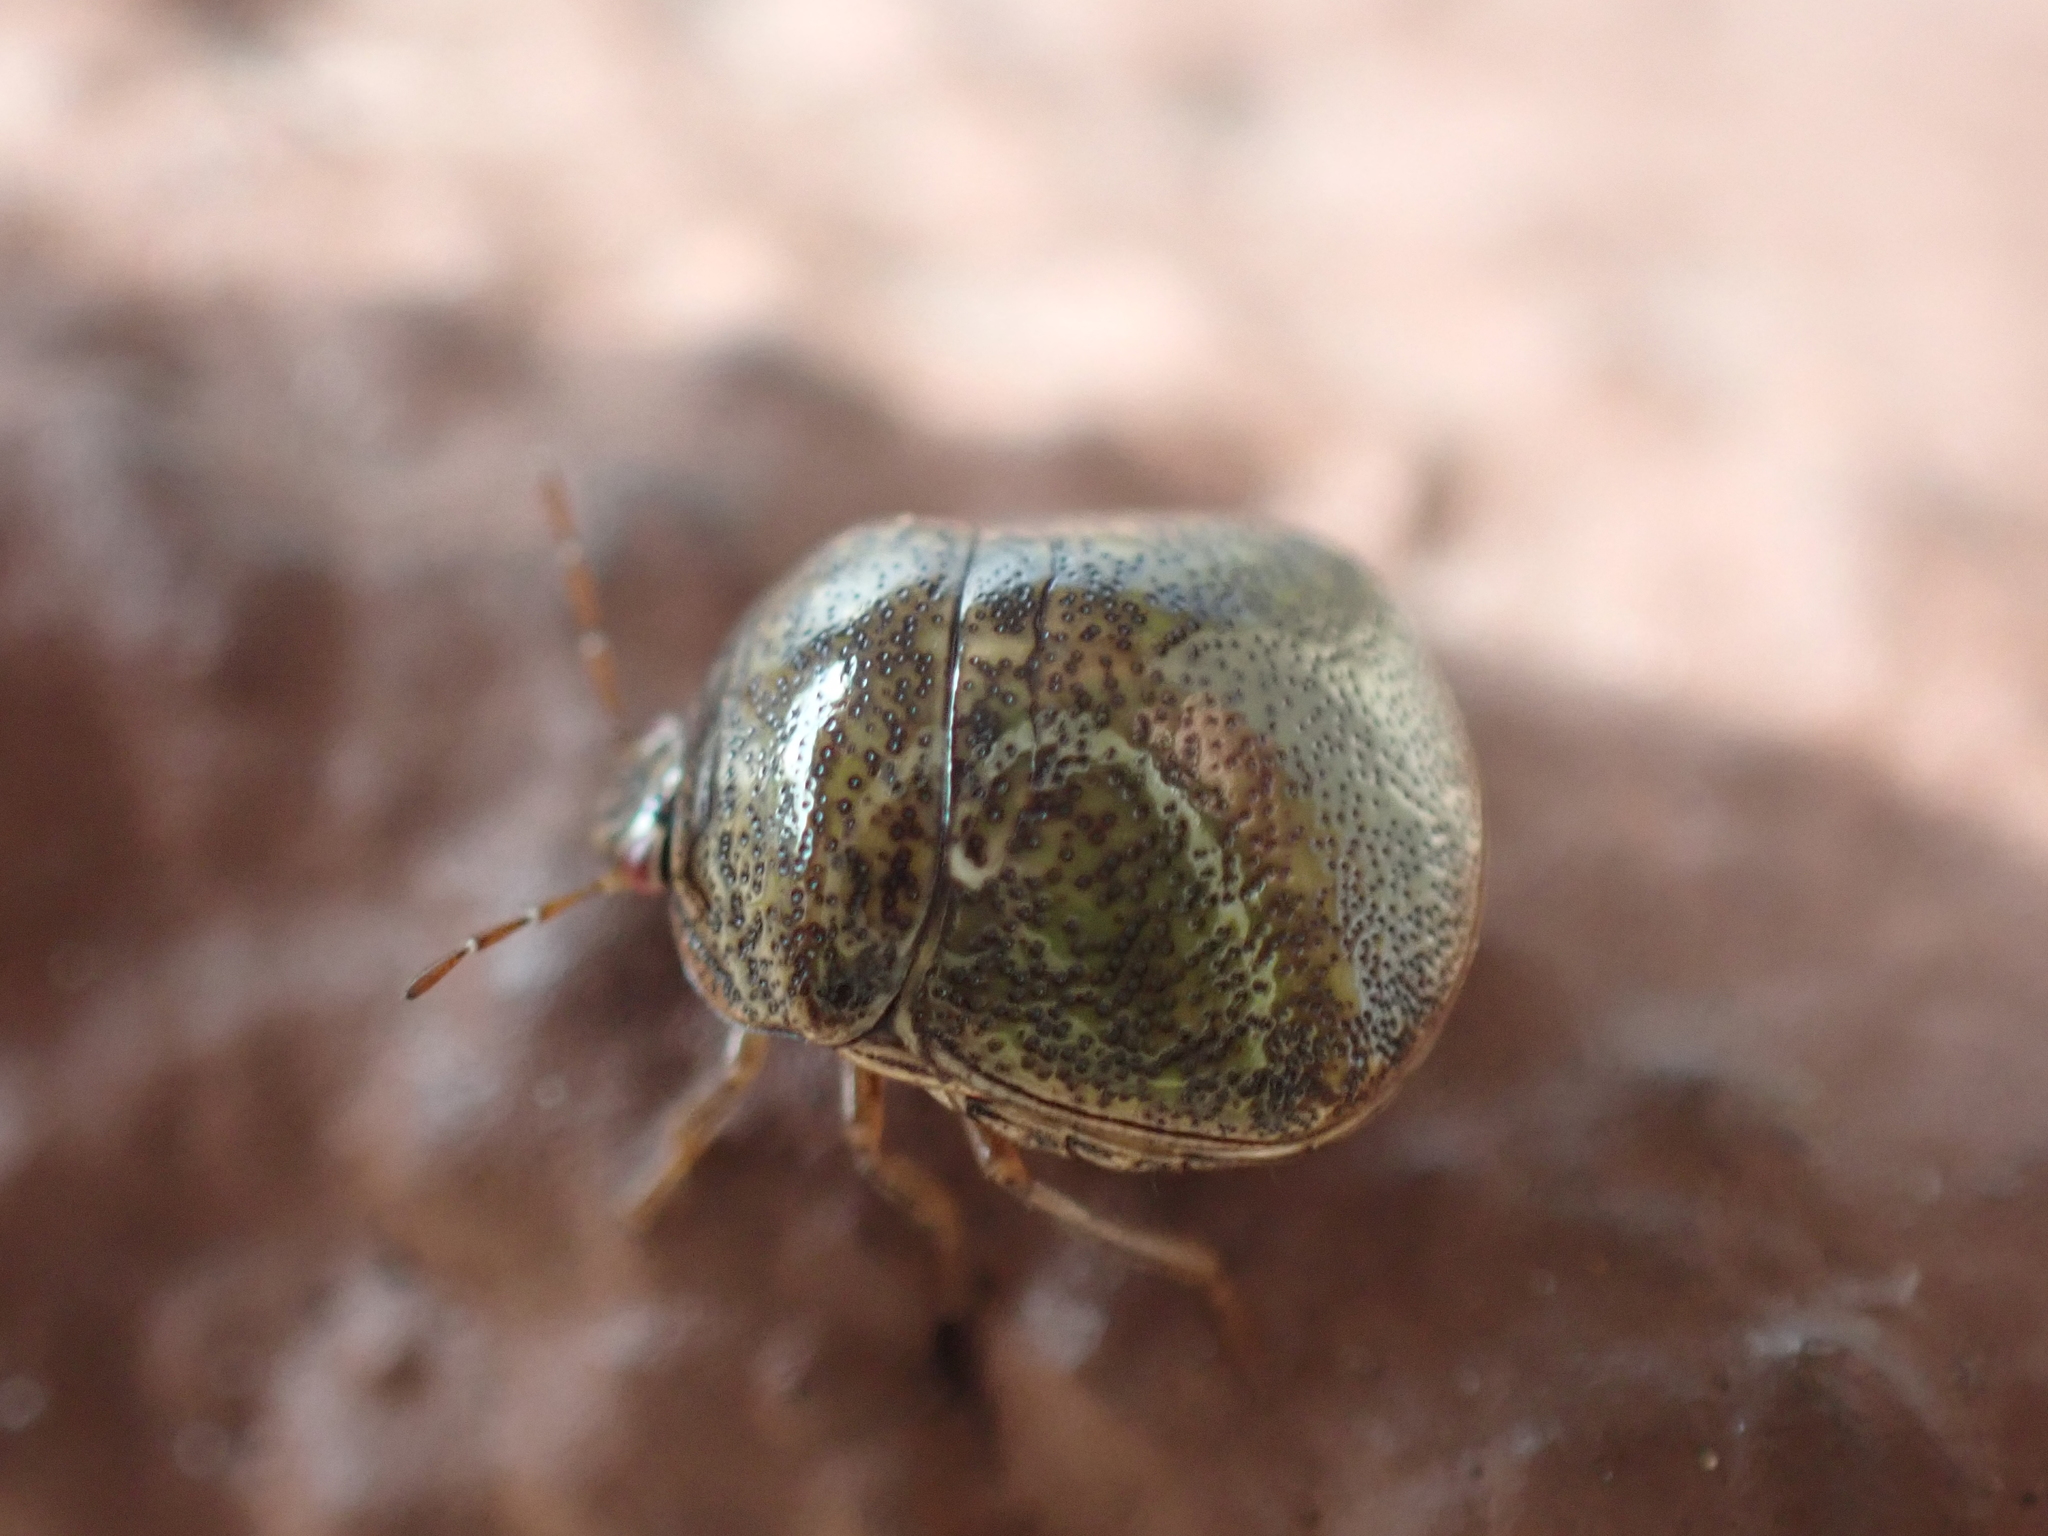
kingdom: Animalia
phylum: Arthropoda
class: Insecta
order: Hemiptera
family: Plataspidae
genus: Megacopta
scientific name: Megacopta cribraria
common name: Bean plataspid
